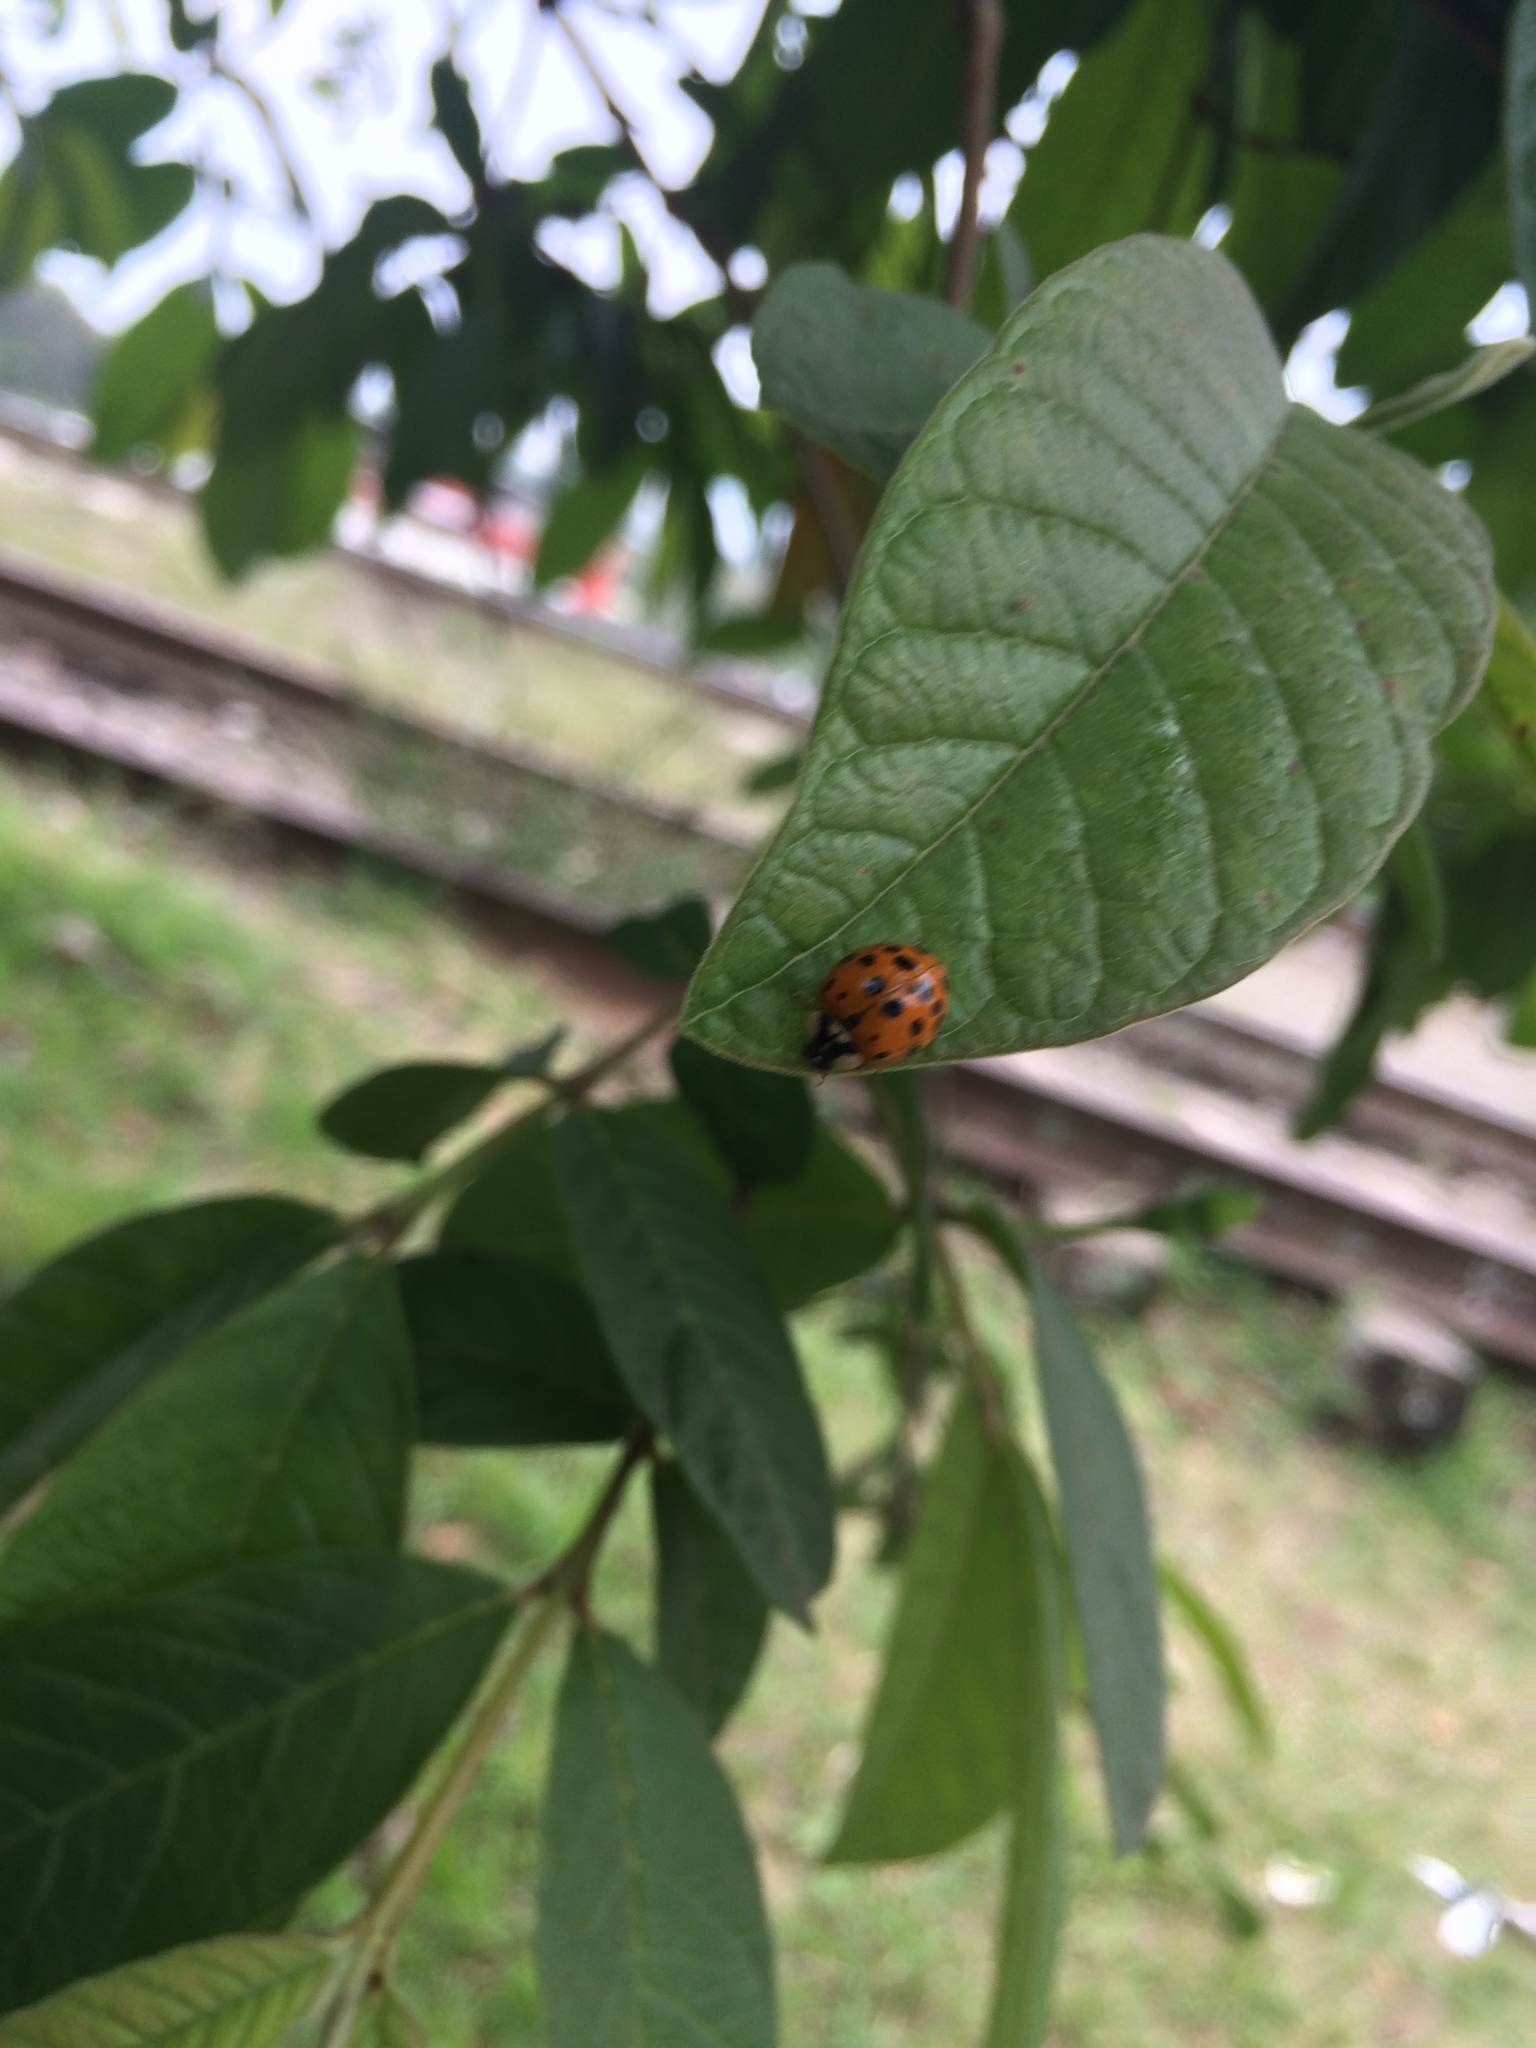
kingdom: Animalia
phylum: Arthropoda
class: Insecta
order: Coleoptera
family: Coccinellidae
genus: Harmonia
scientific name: Harmonia axyridis
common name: Harlequin ladybird
